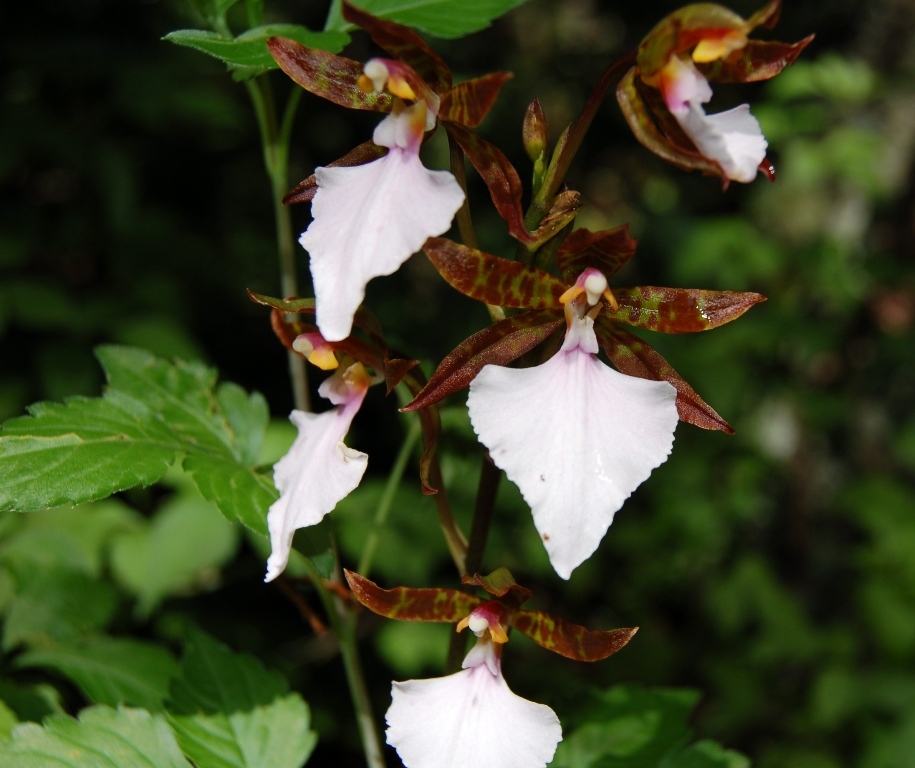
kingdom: Plantae
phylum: Tracheophyta
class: Liliopsida
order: Asparagales
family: Orchidaceae
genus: Rhynchostele
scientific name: Rhynchostele bictoniensis
